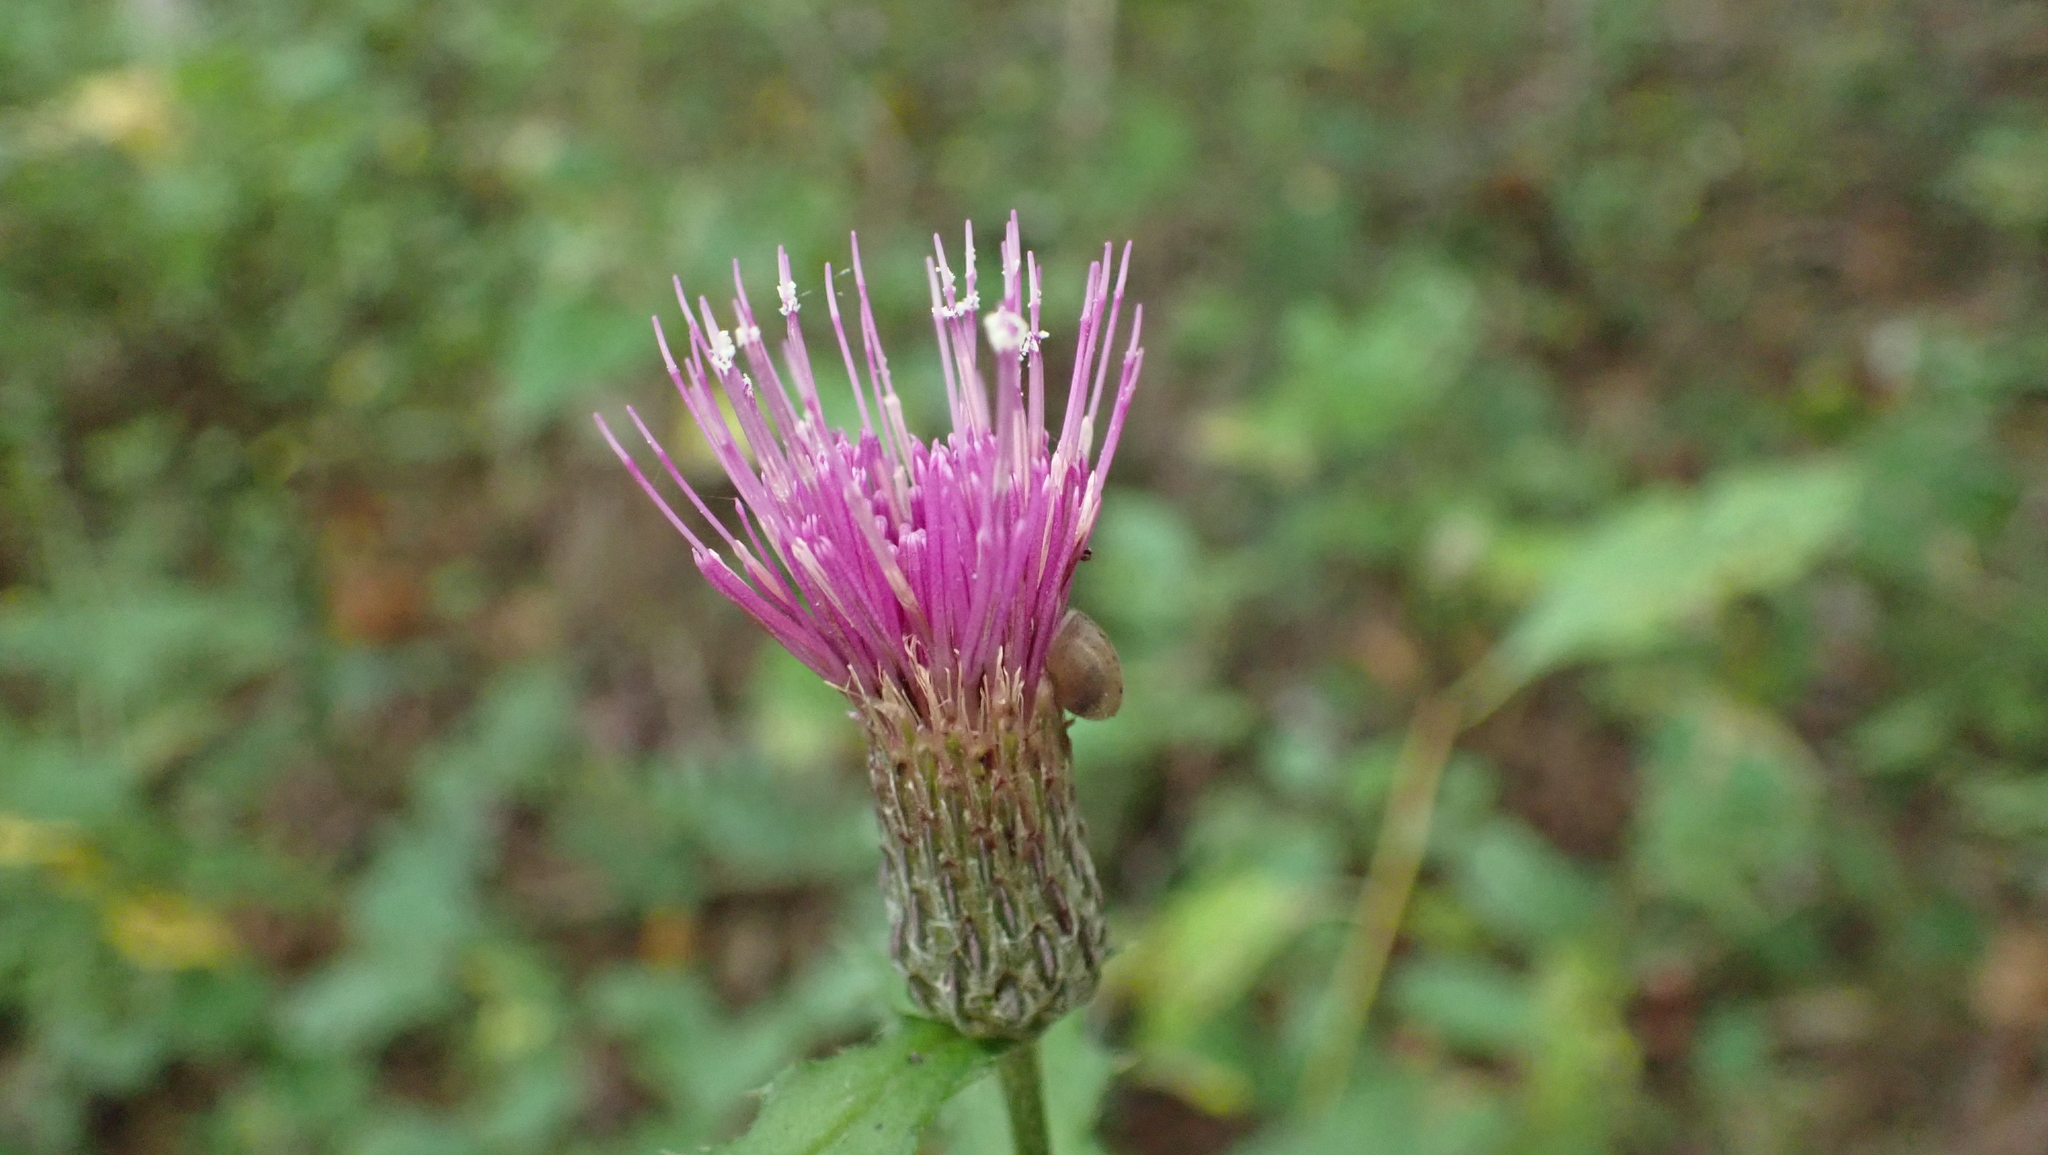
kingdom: Plantae
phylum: Tracheophyta
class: Magnoliopsida
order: Asterales
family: Asteraceae
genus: Cirsium
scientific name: Cirsium muticum
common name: Dunce-nettle
